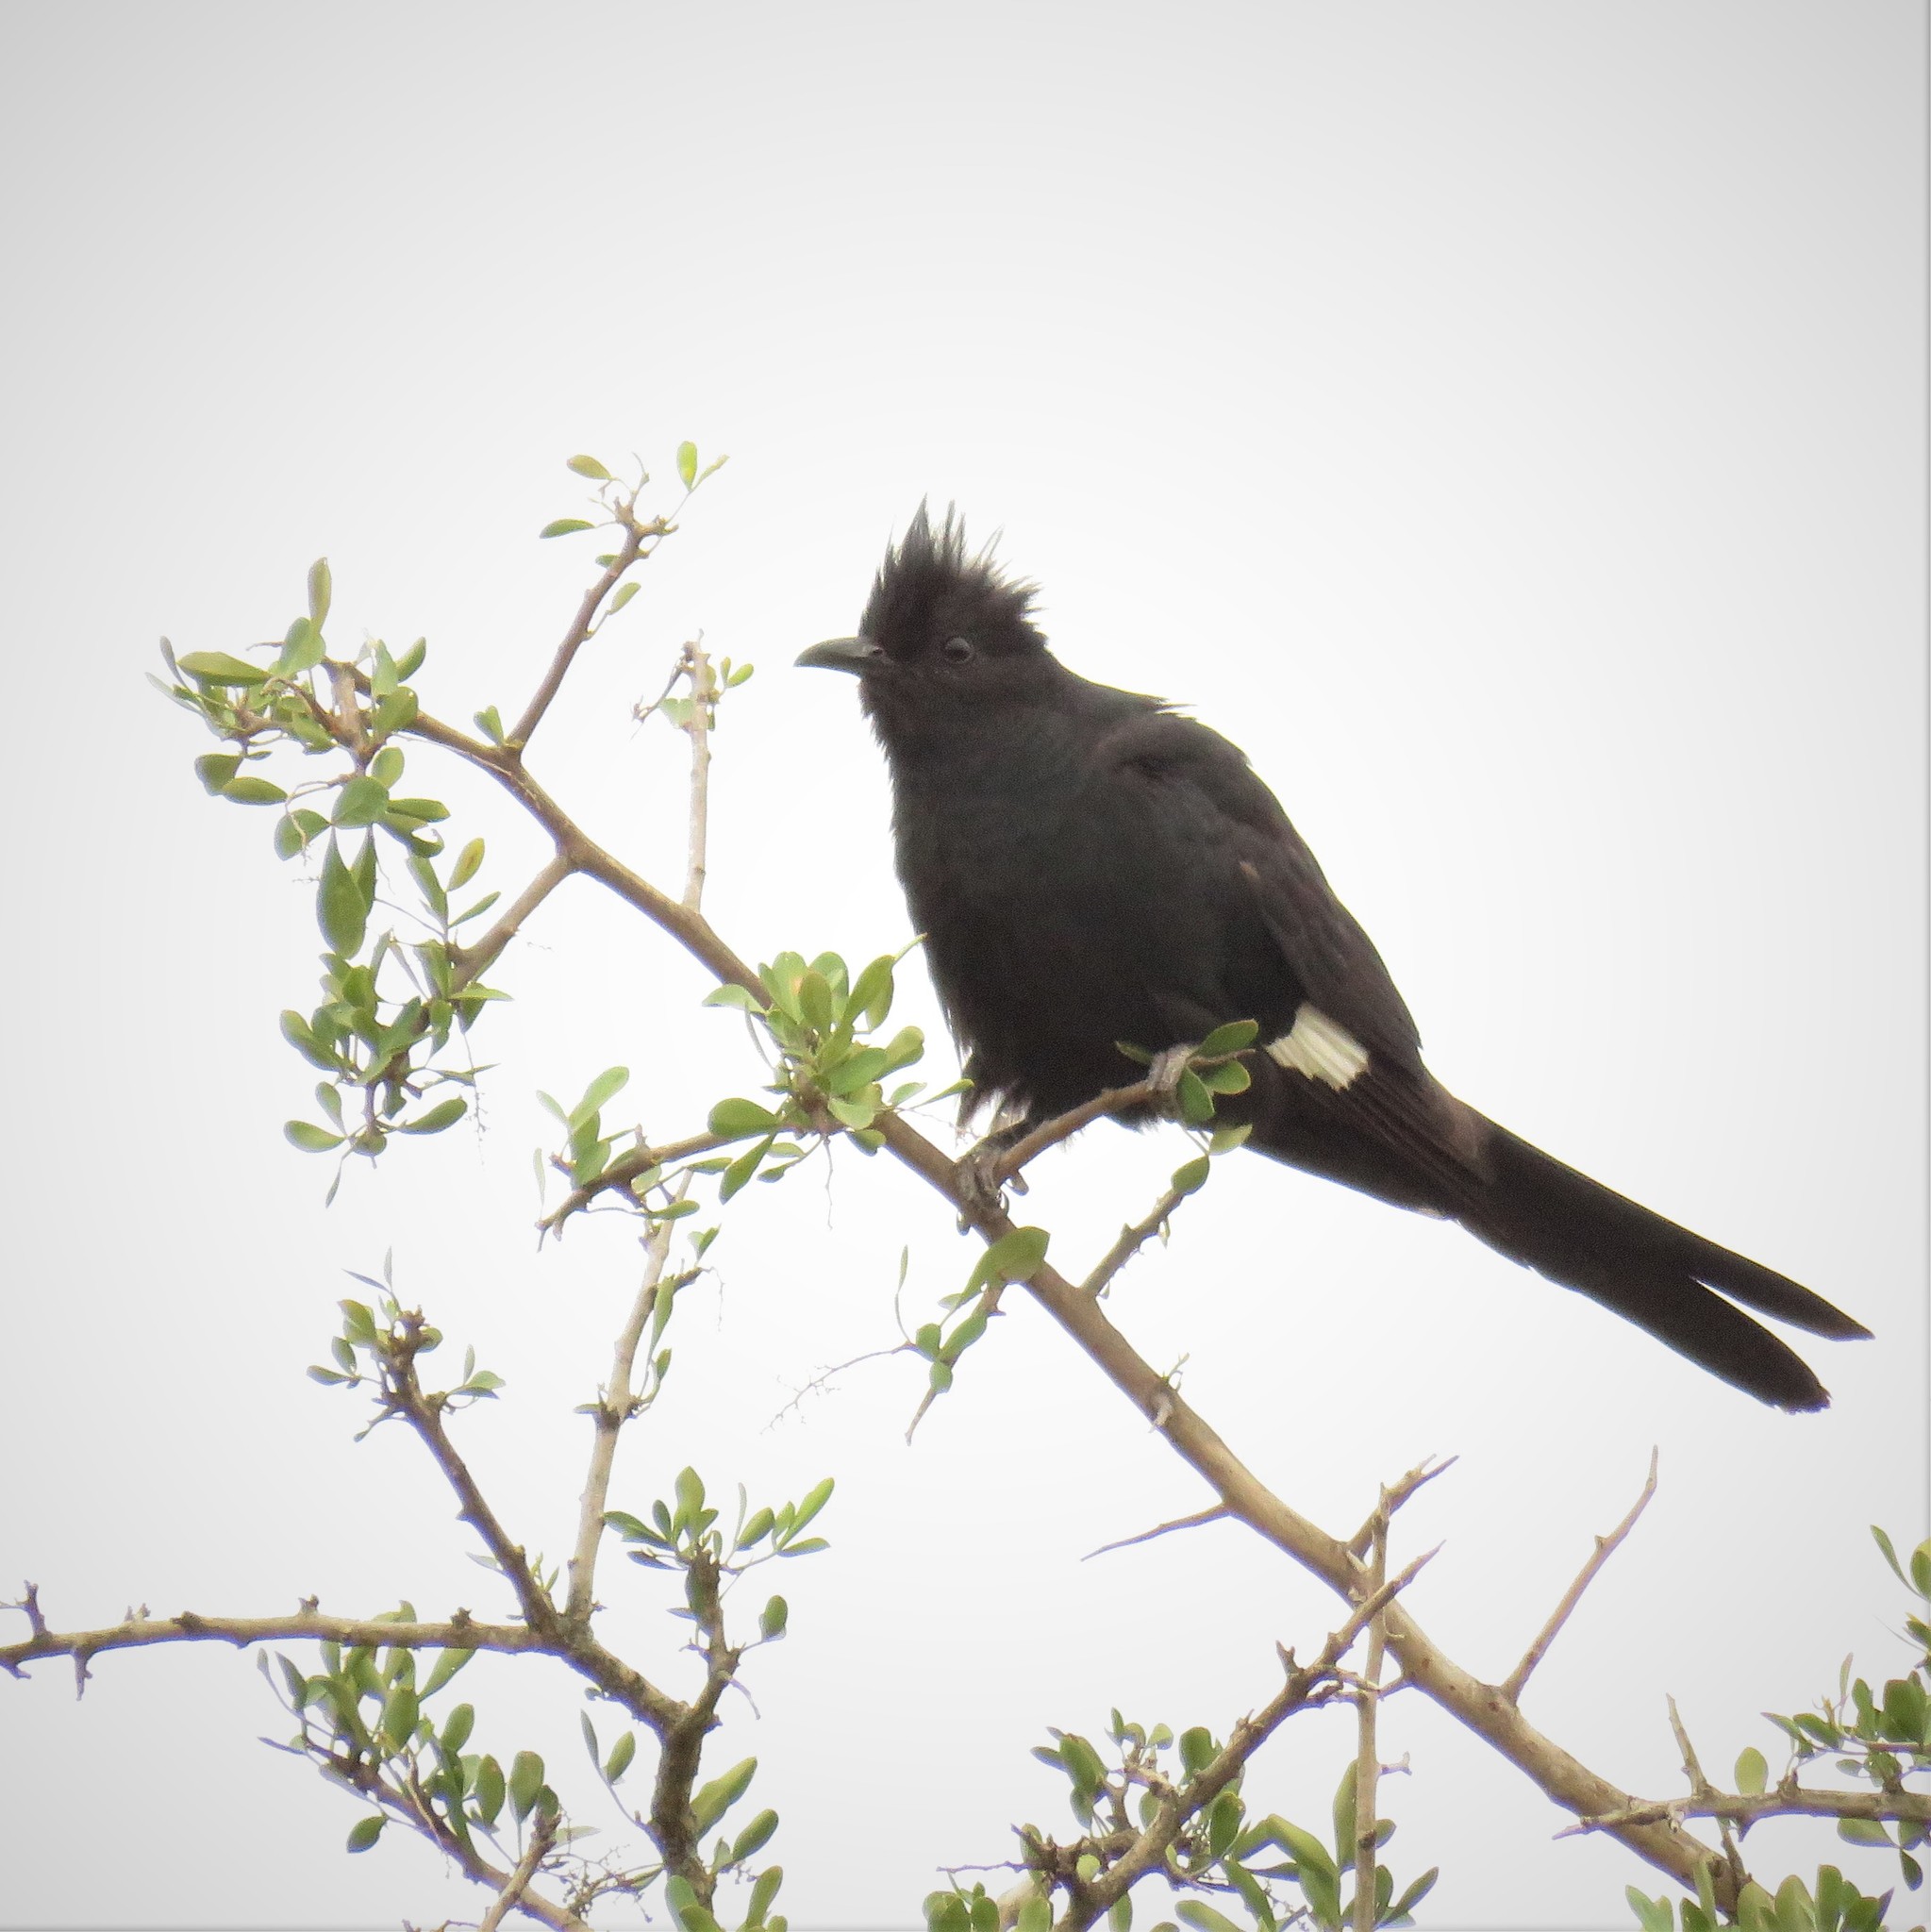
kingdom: Animalia
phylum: Chordata
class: Aves
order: Cuculiformes
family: Cuculidae
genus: Clamator
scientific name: Clamator jacobinus
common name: Jacobin cuckoo
